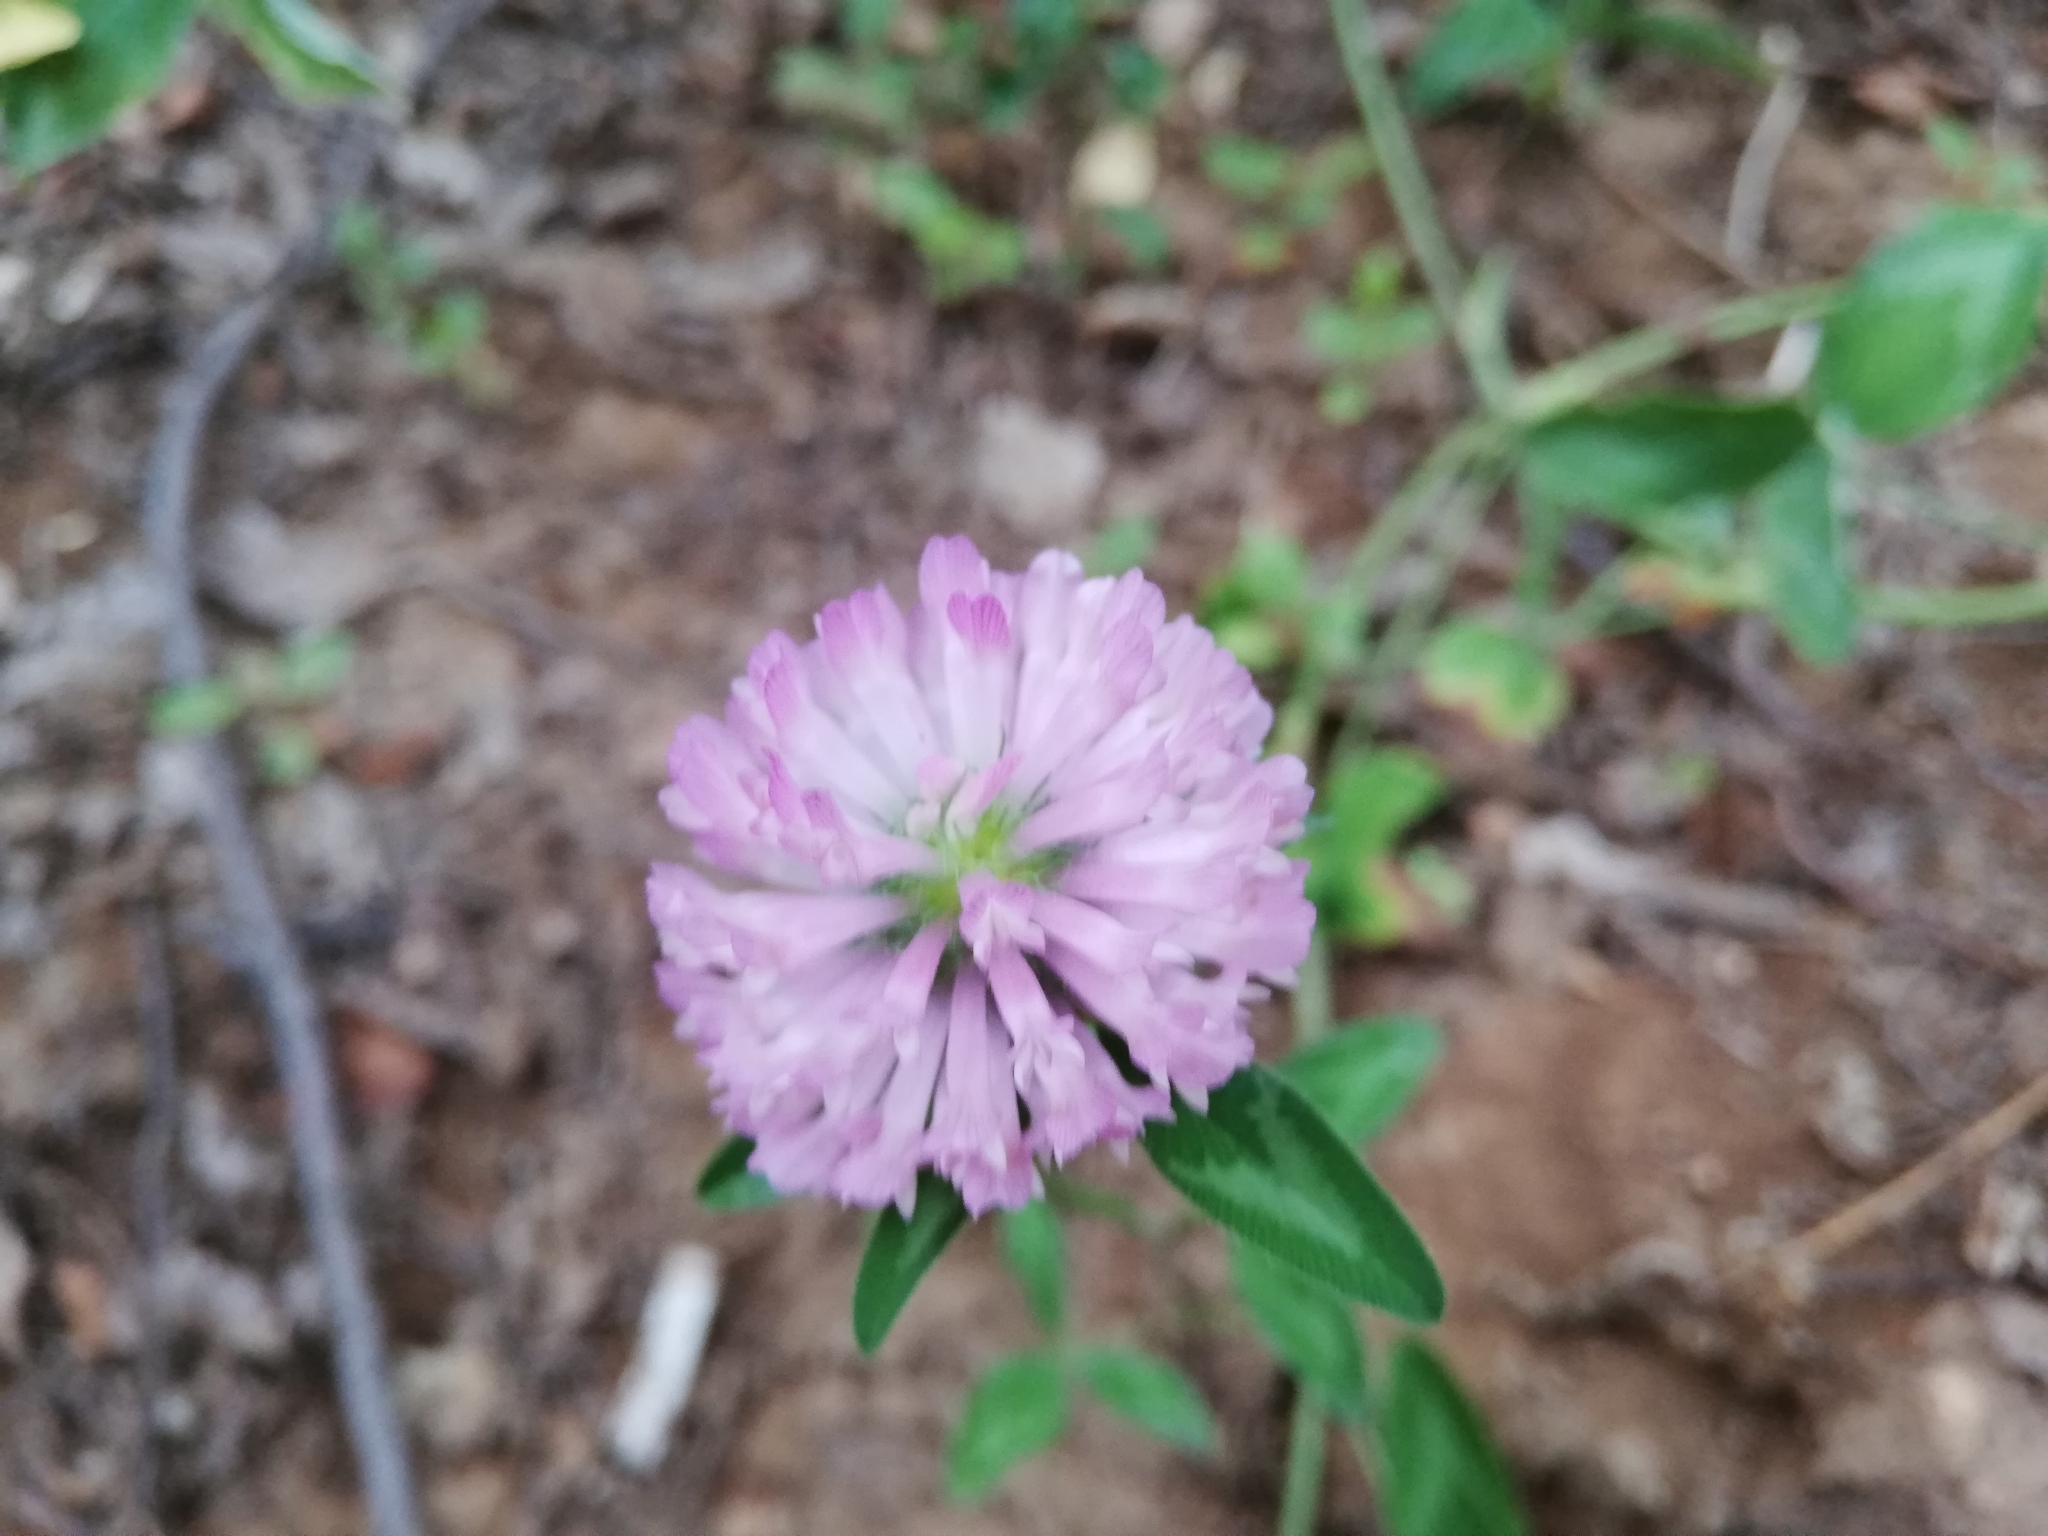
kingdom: Plantae
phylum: Tracheophyta
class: Magnoliopsida
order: Fabales
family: Fabaceae
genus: Trifolium
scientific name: Trifolium pratense
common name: Red clover
